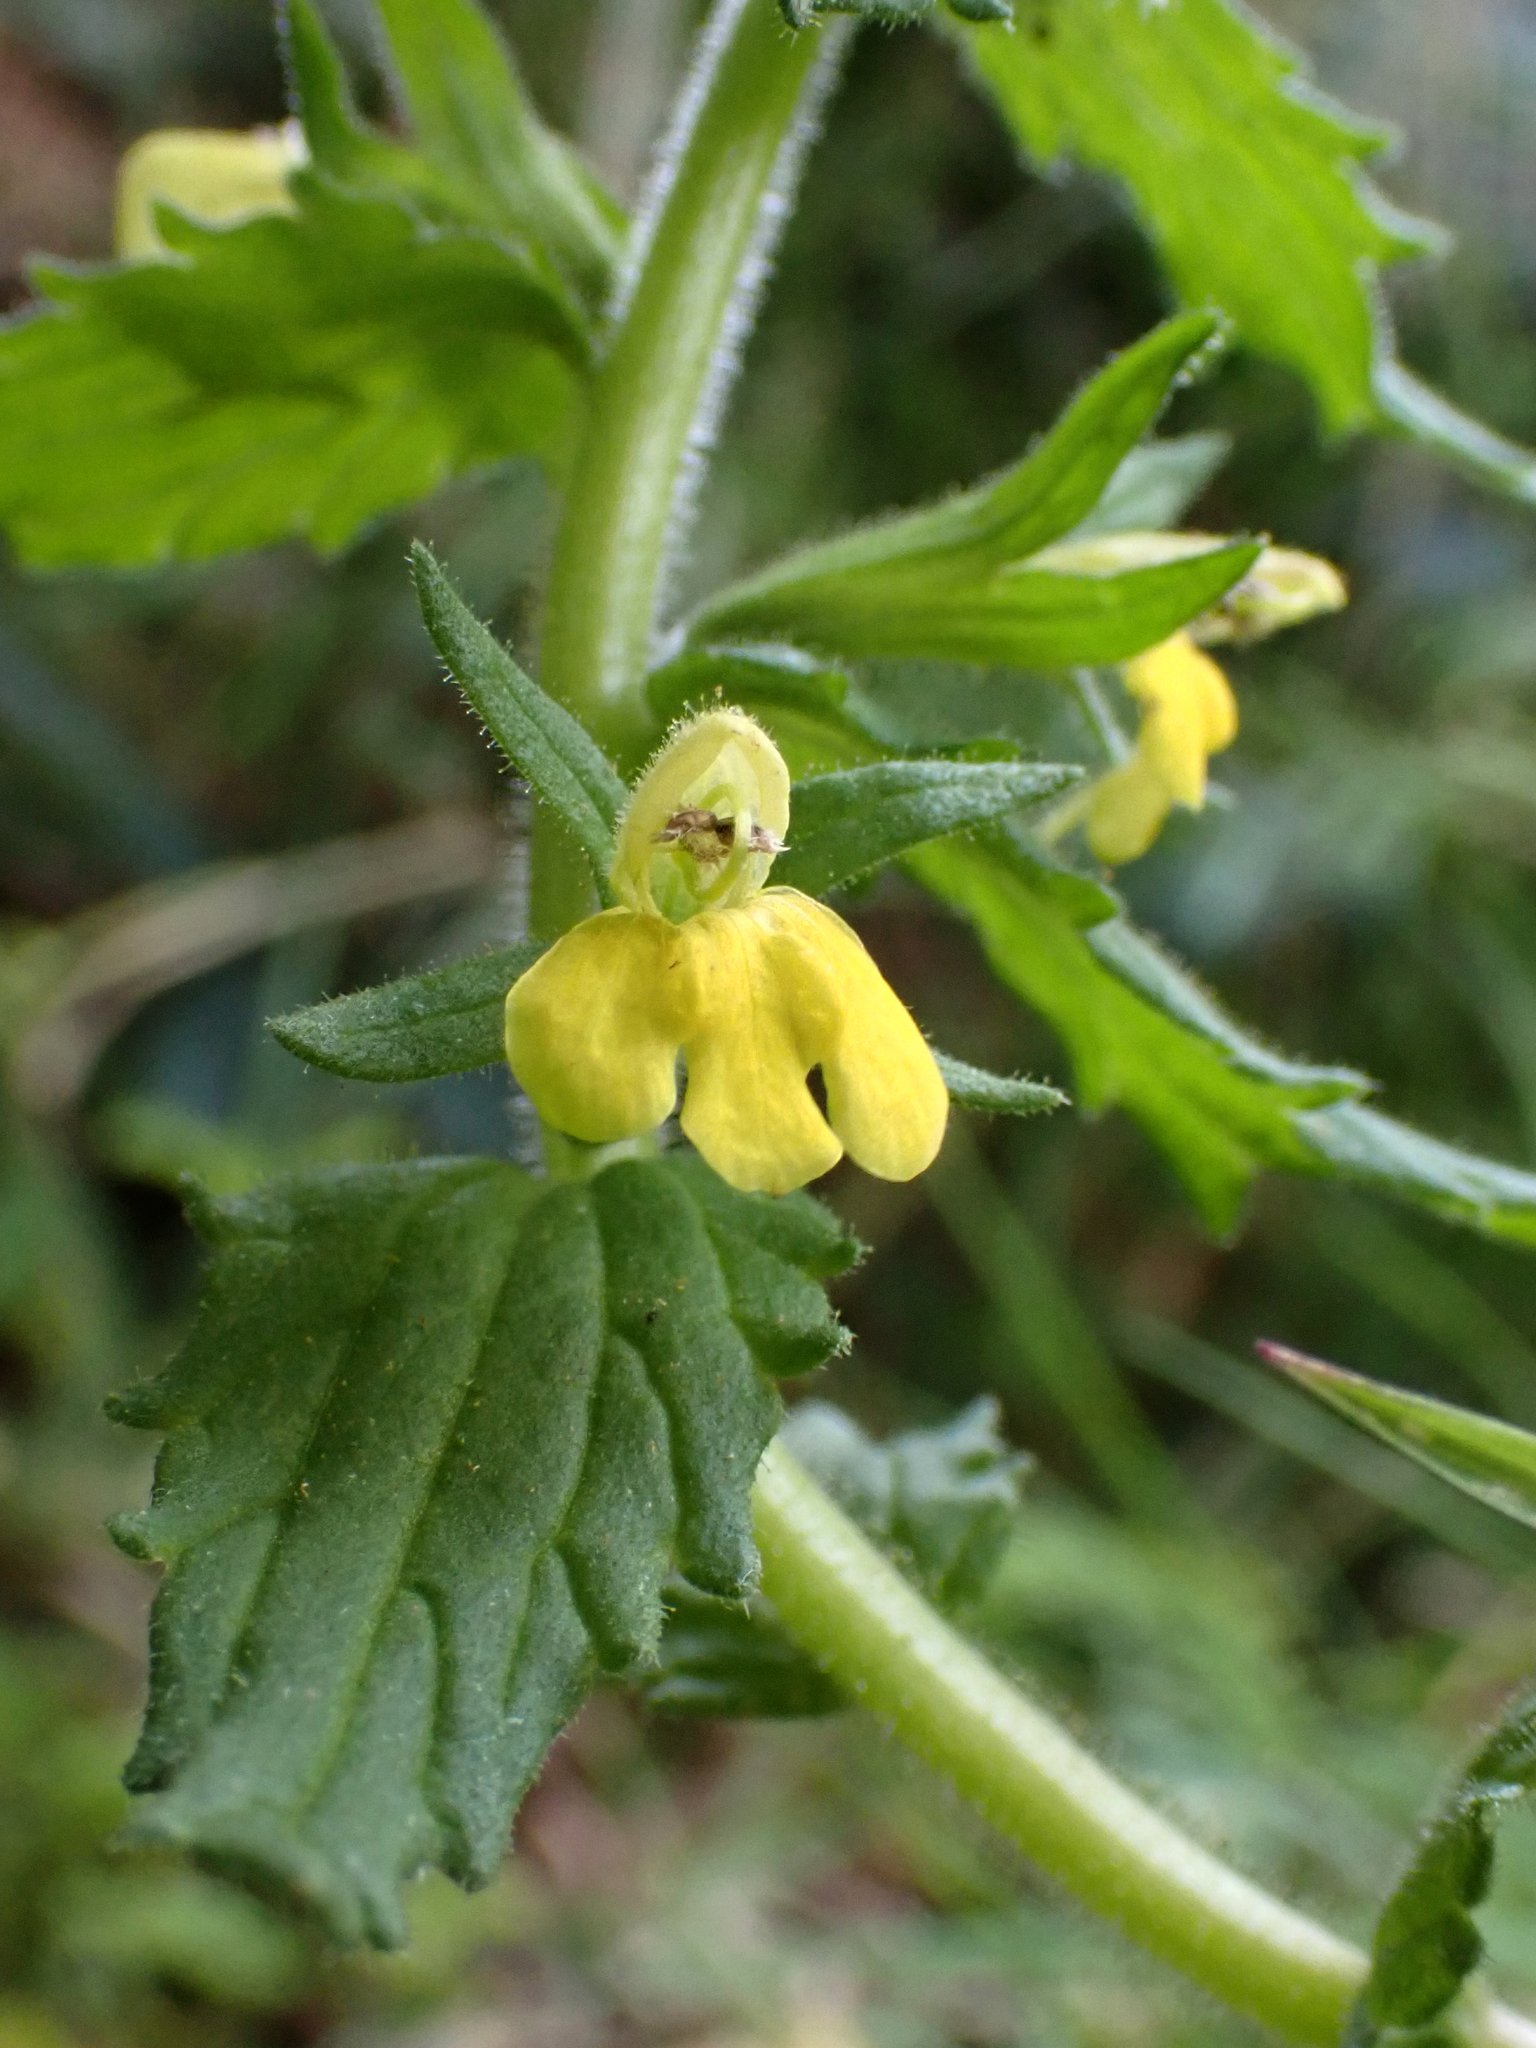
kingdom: Plantae
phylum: Tracheophyta
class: Magnoliopsida
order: Lamiales
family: Orobanchaceae
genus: Bellardia
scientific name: Bellardia viscosa
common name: Sticky parentucellia
